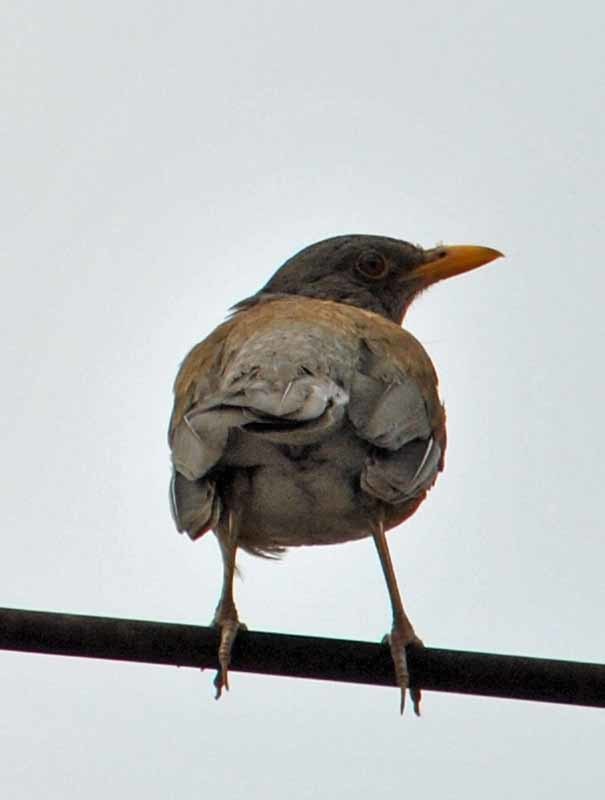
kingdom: Animalia
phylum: Chordata
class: Aves
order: Passeriformes
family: Turdidae
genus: Turdus
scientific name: Turdus rufopalliatus
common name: Rufous-backed robin
